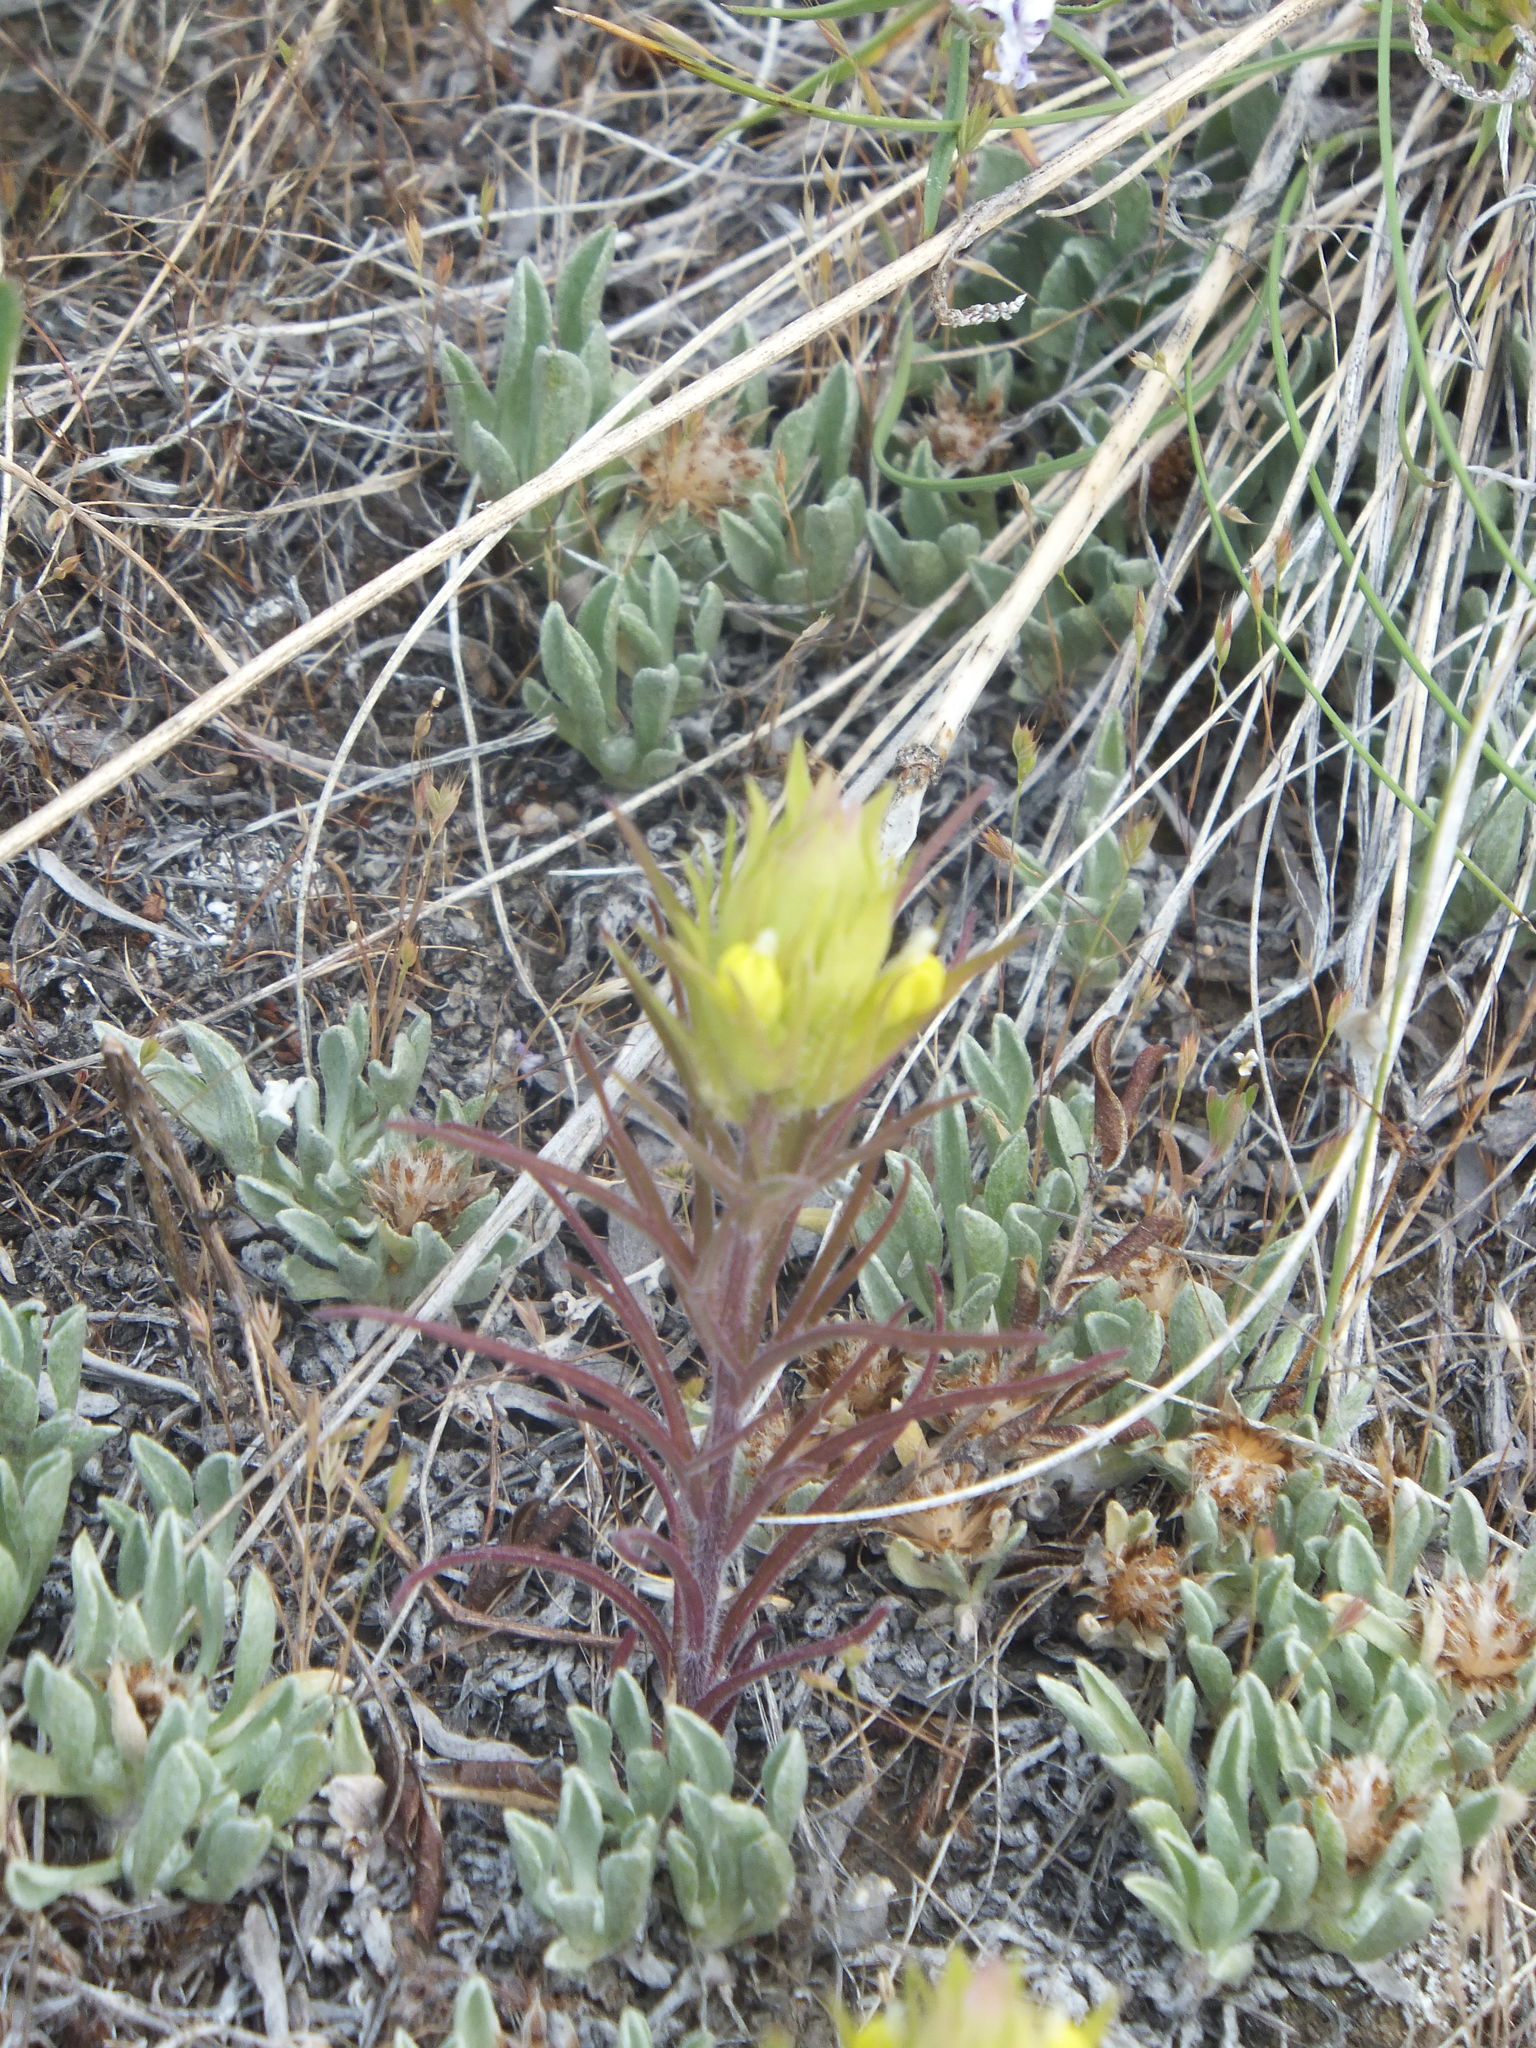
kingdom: Plantae
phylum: Tracheophyta
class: Magnoliopsida
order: Lamiales
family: Orobanchaceae
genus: Orthocarpus
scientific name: Orthocarpus barbatus
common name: Grand coulee owl's-clover
